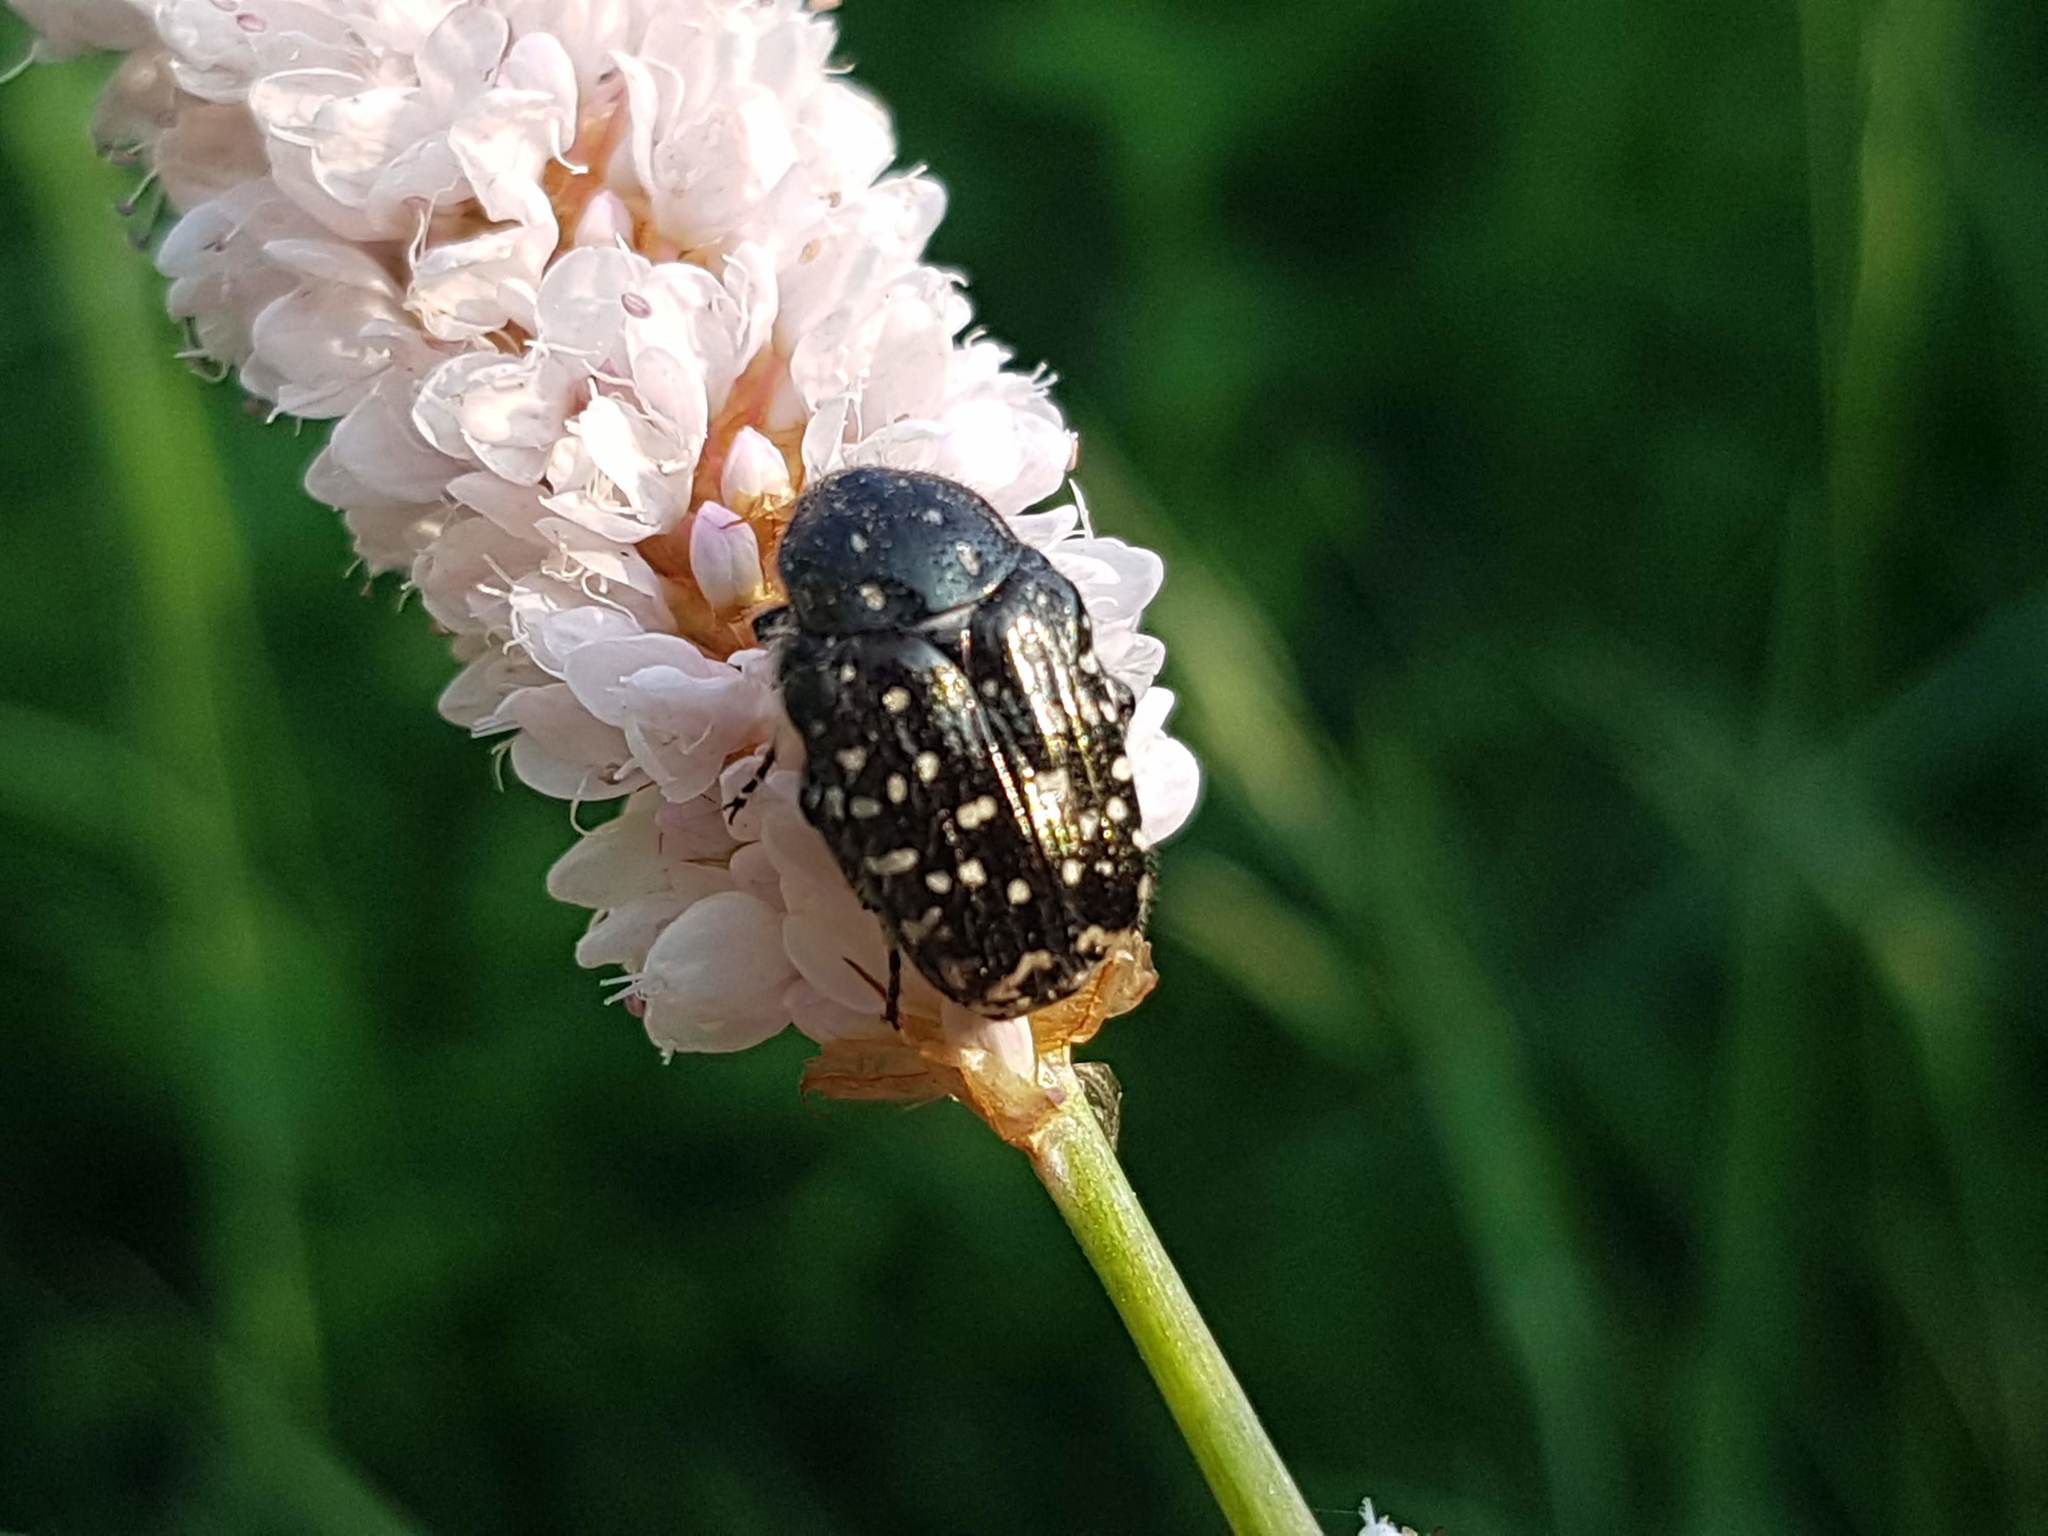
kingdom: Animalia
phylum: Arthropoda
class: Insecta
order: Coleoptera
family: Scarabaeidae
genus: Oxythyrea
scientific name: Oxythyrea funesta
